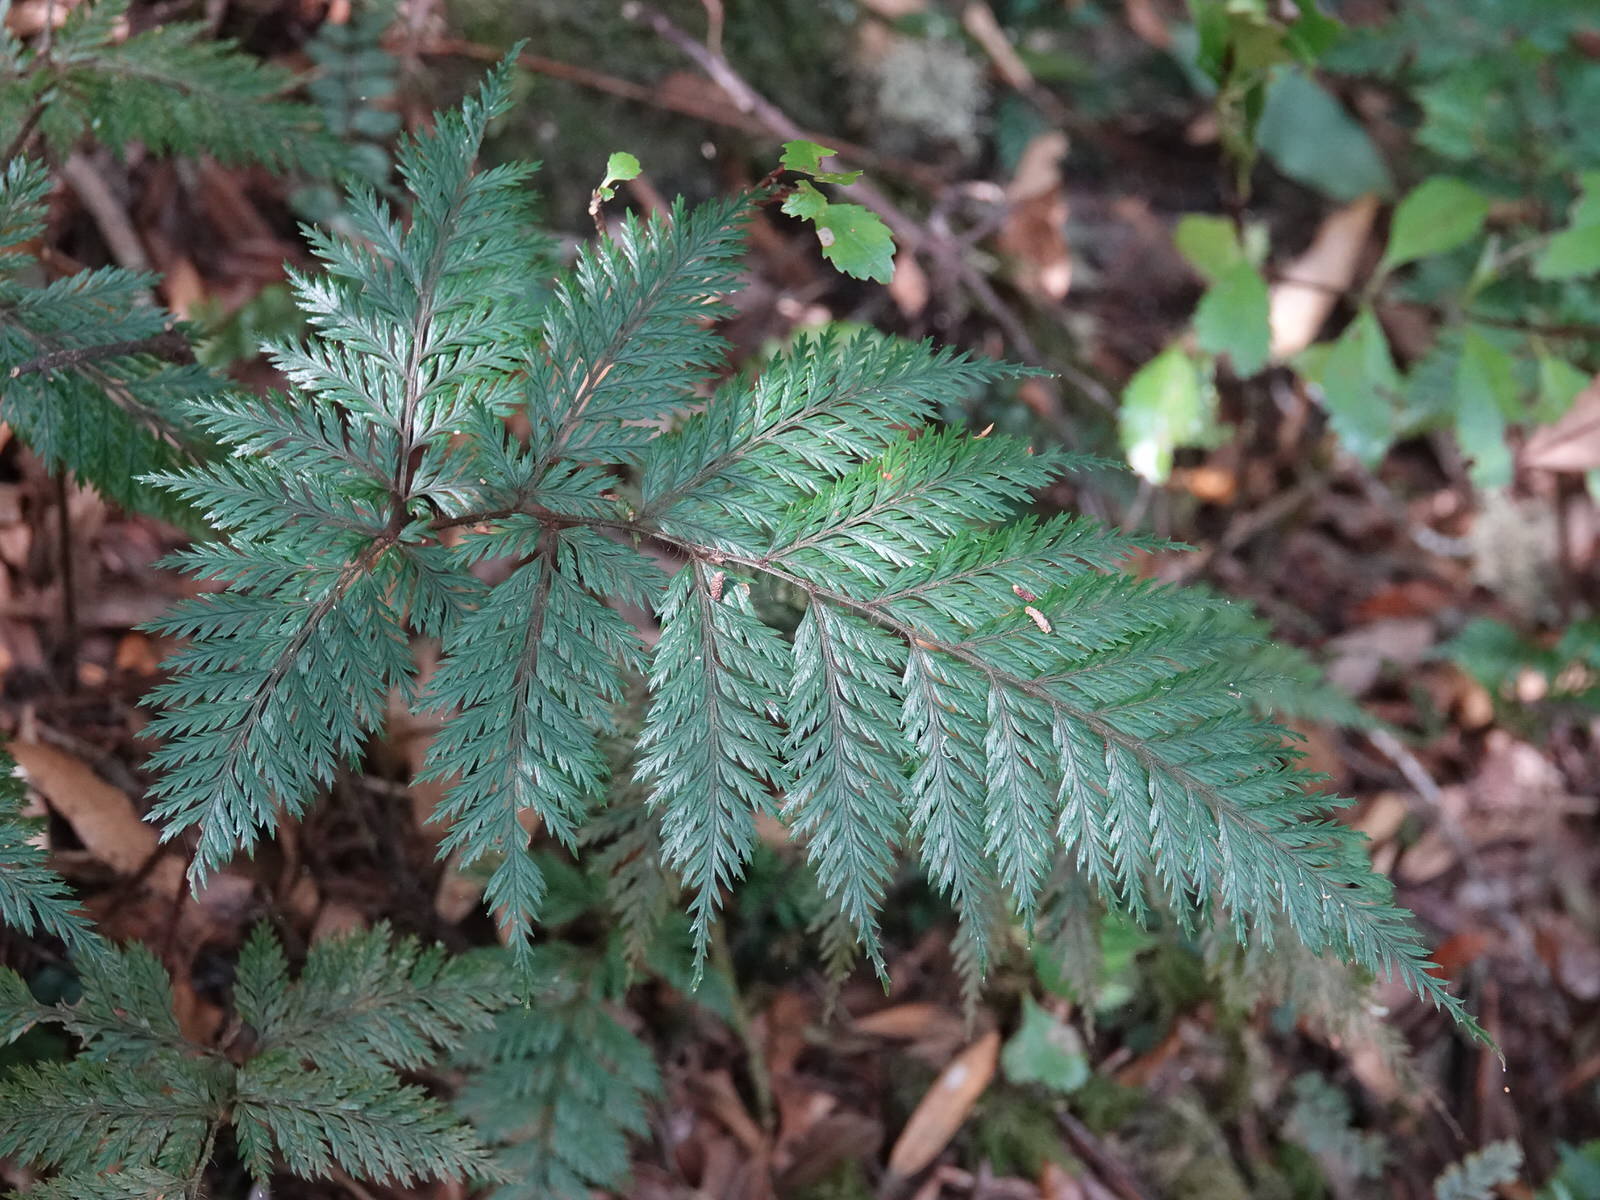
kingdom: Plantae
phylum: Tracheophyta
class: Polypodiopsida
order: Polypodiales
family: Dryopteridaceae
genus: Lastreopsis
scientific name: Lastreopsis hispida
